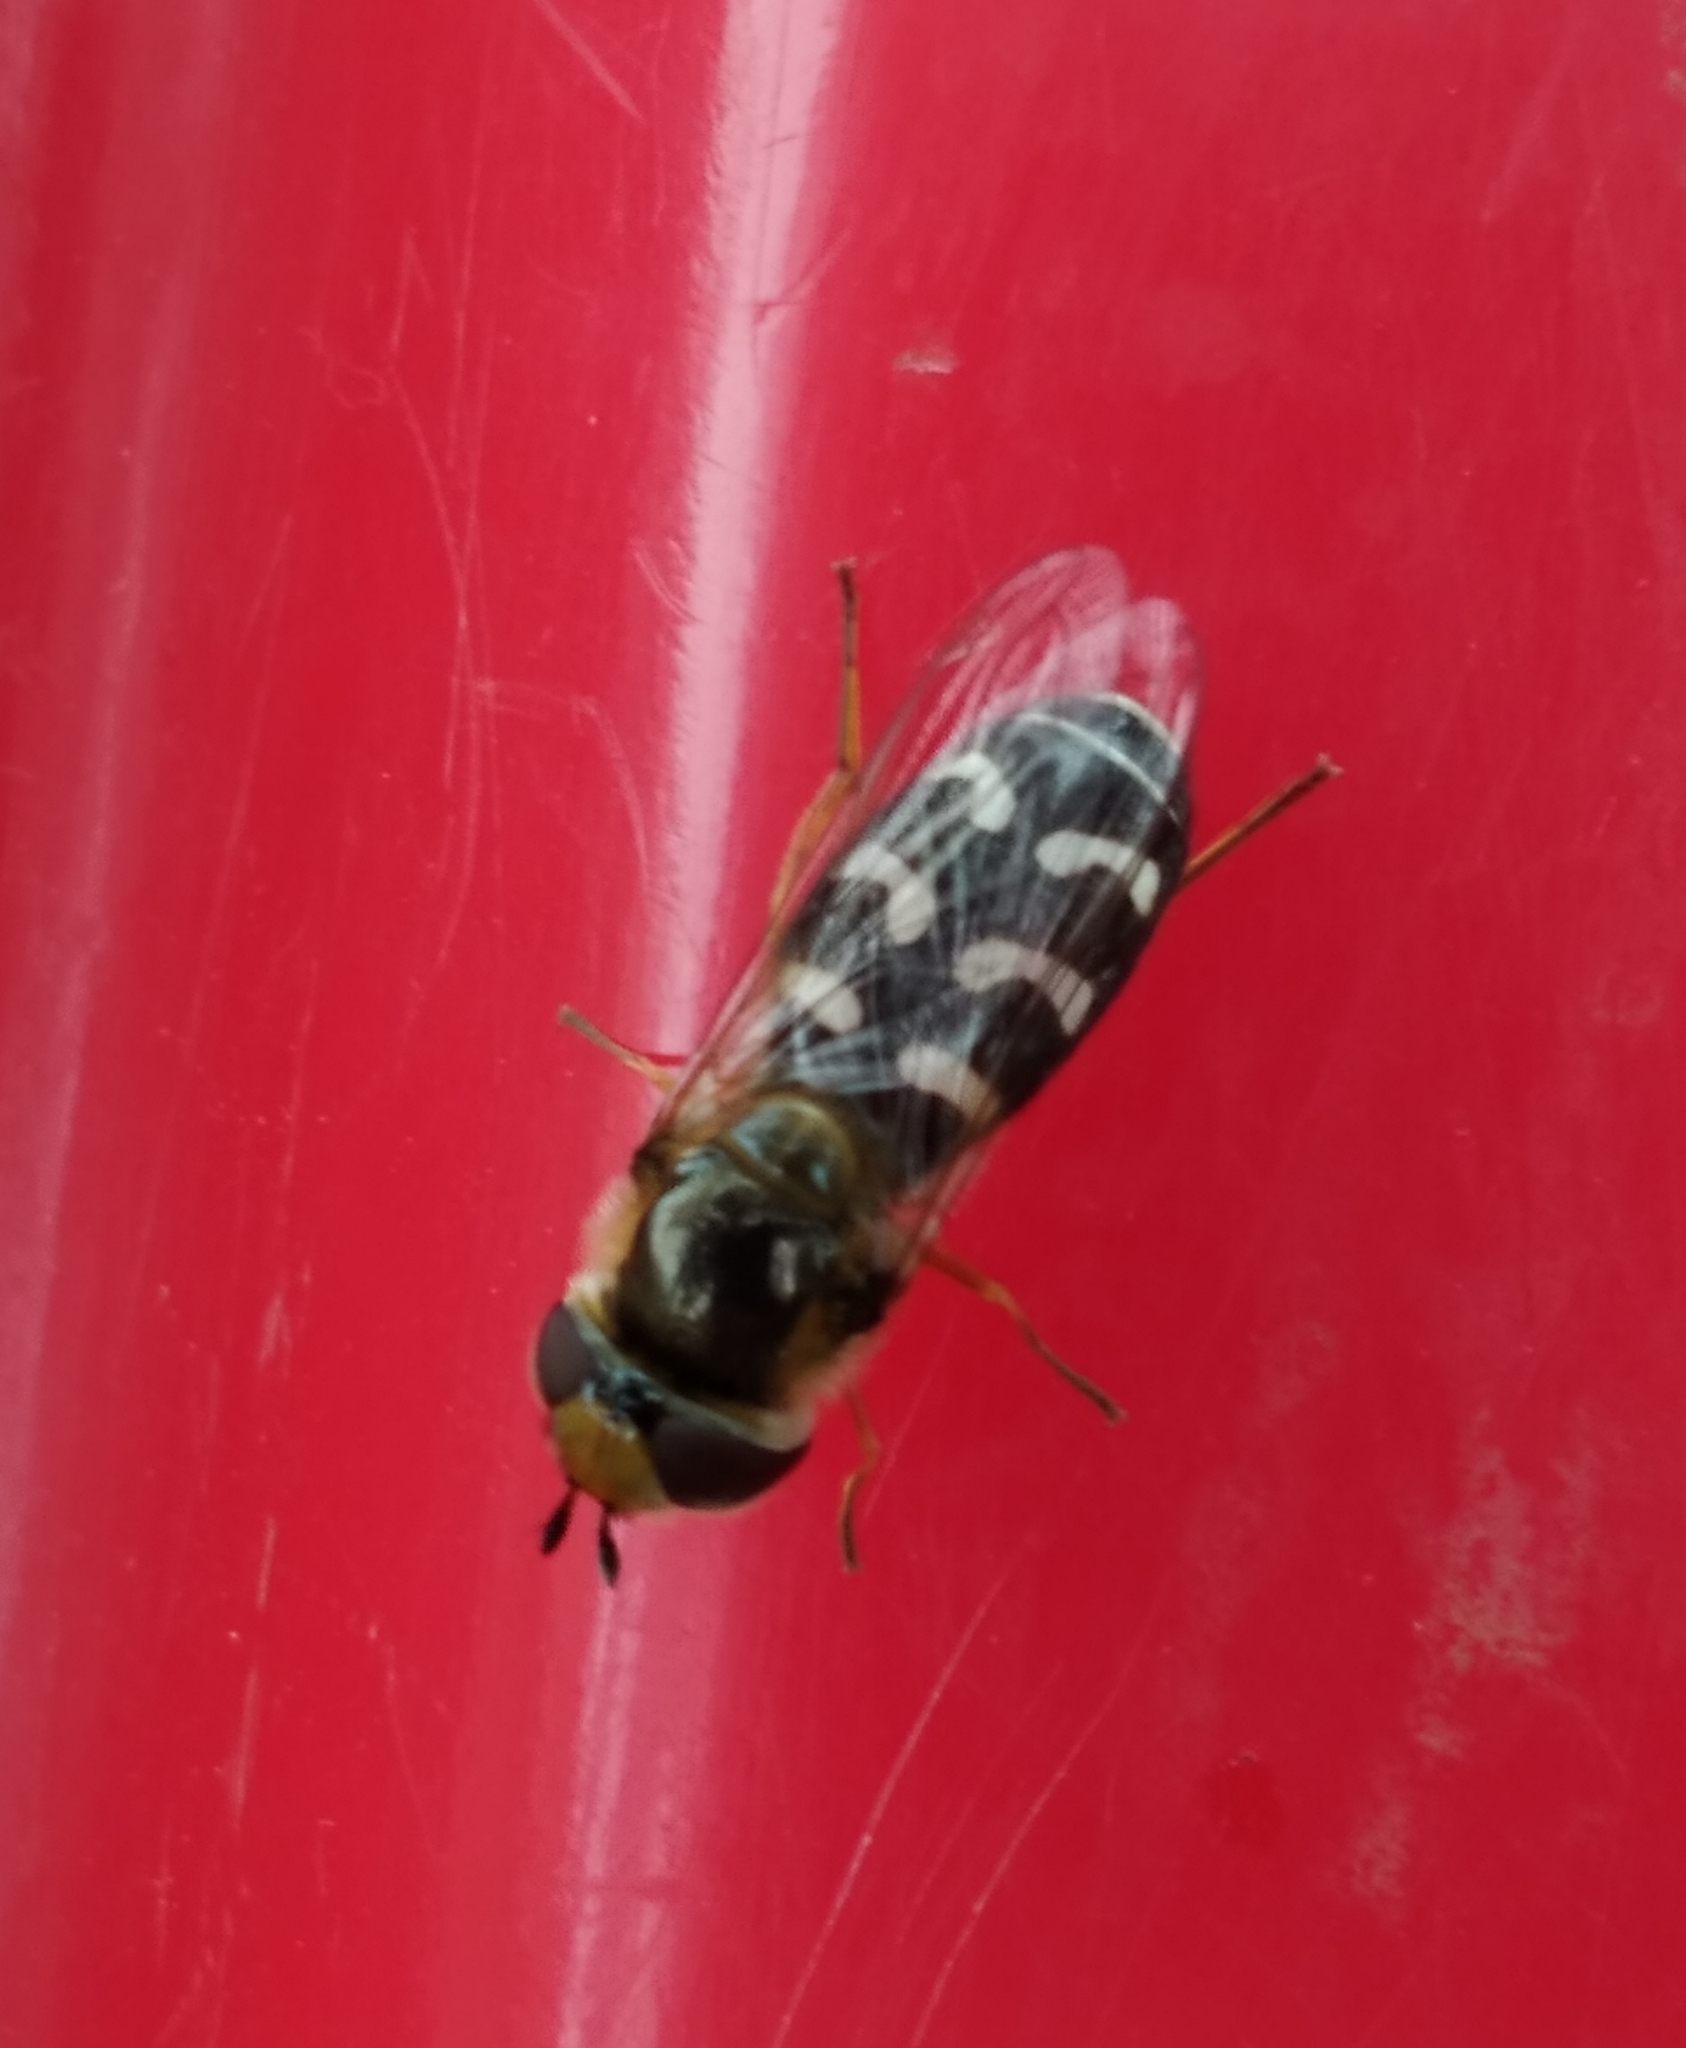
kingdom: Animalia
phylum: Arthropoda
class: Insecta
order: Diptera
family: Syrphidae
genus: Scaeva
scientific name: Scaeva pyrastri
